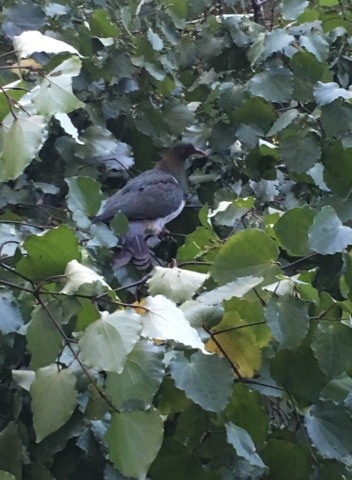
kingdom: Animalia
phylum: Chordata
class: Aves
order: Columbiformes
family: Columbidae
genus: Hemiphaga
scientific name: Hemiphaga novaeseelandiae
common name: New zealand pigeon
